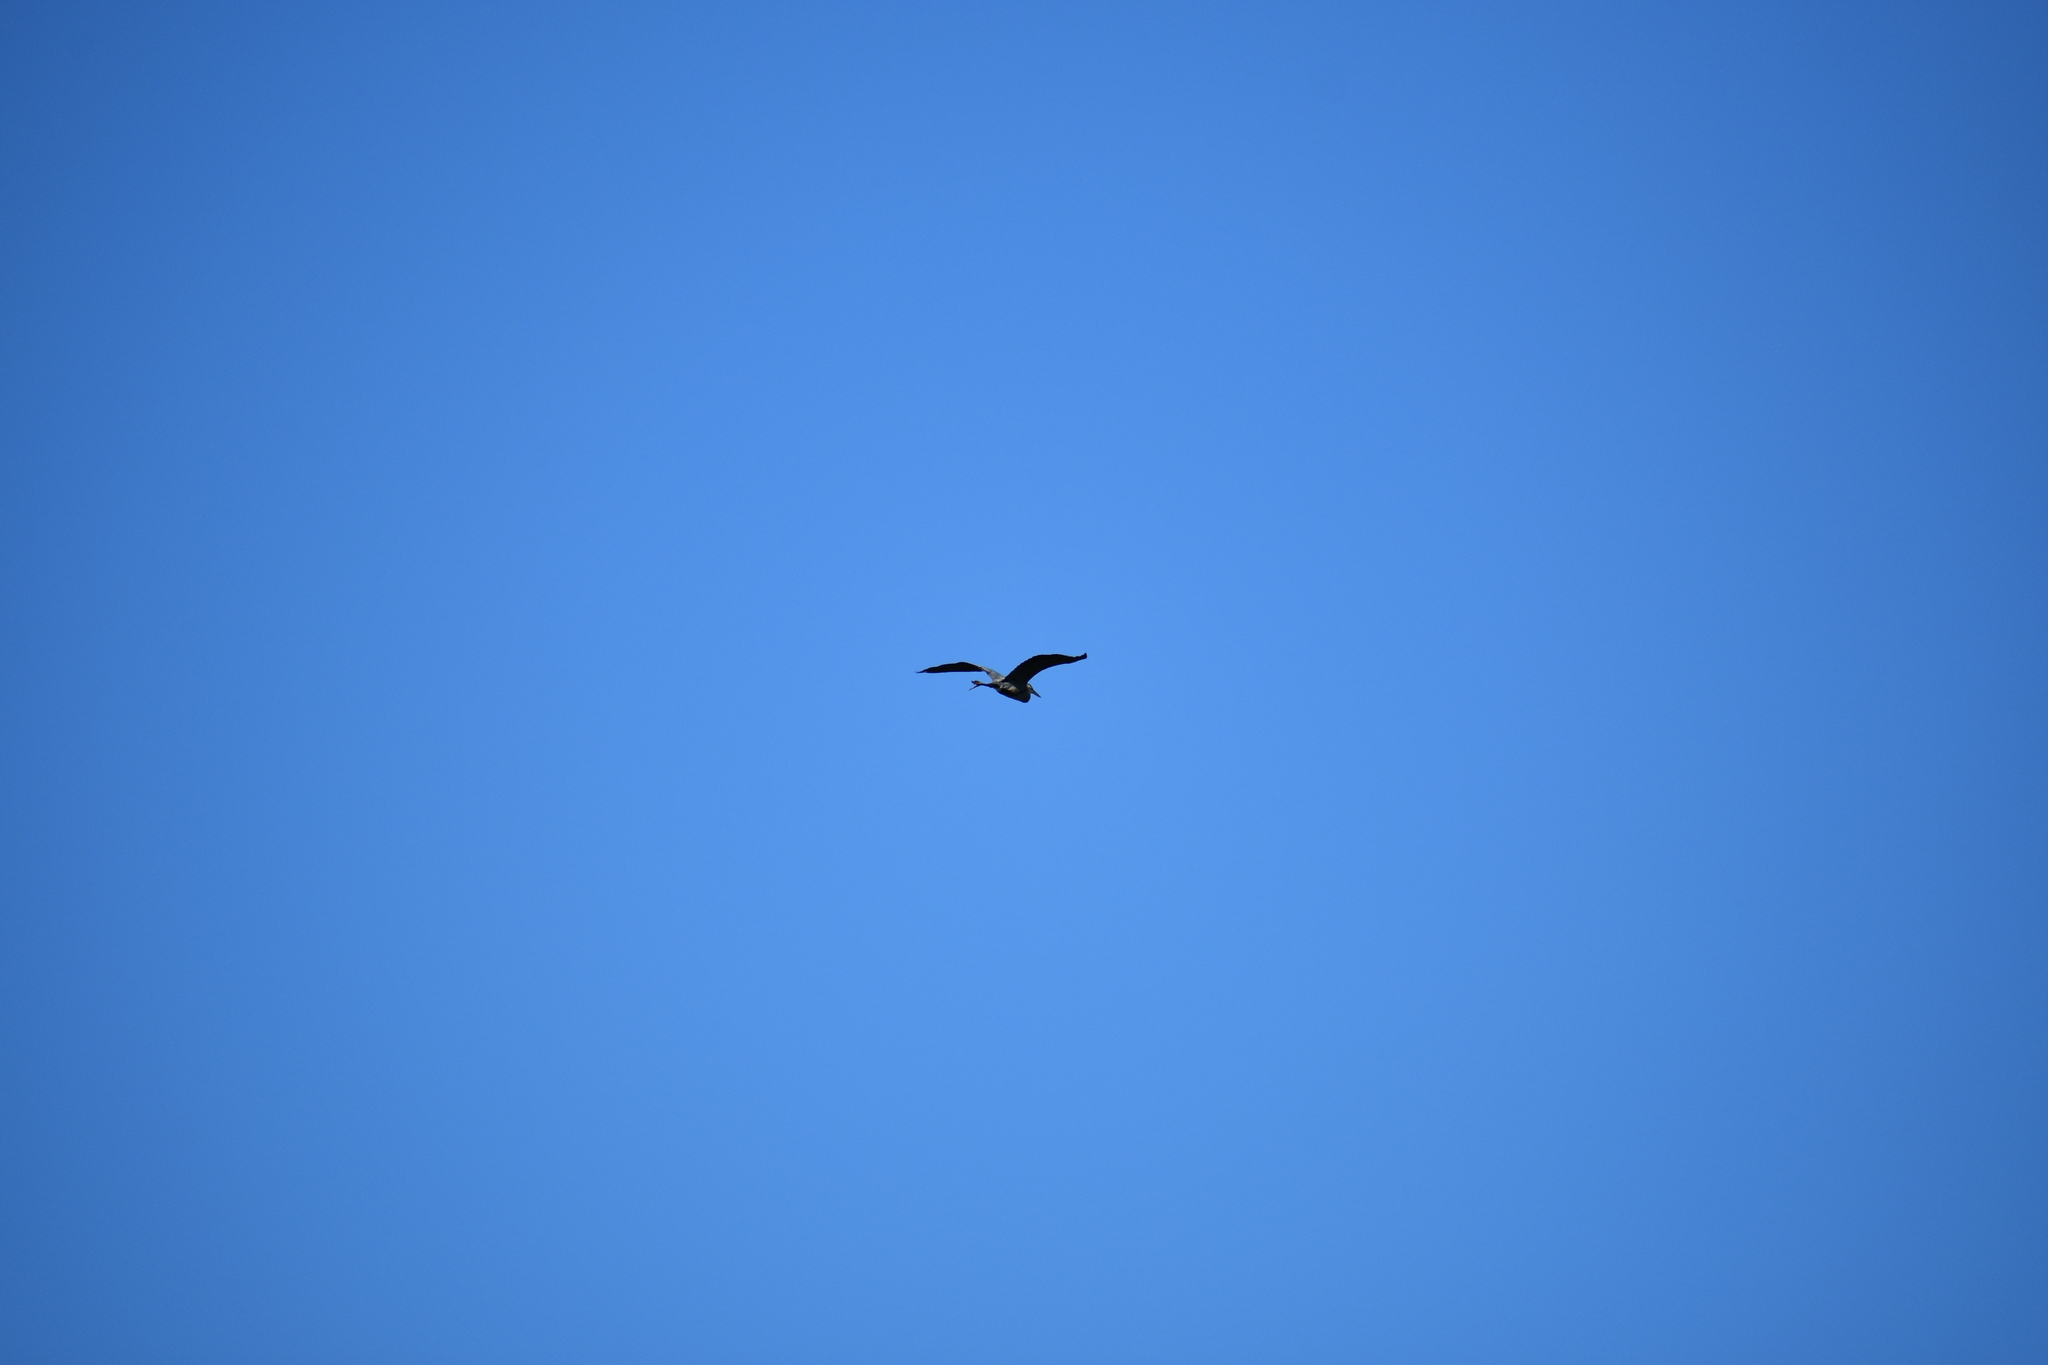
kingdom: Animalia
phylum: Chordata
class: Aves
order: Pelecaniformes
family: Ardeidae
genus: Ardea
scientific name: Ardea herodias
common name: Great blue heron
